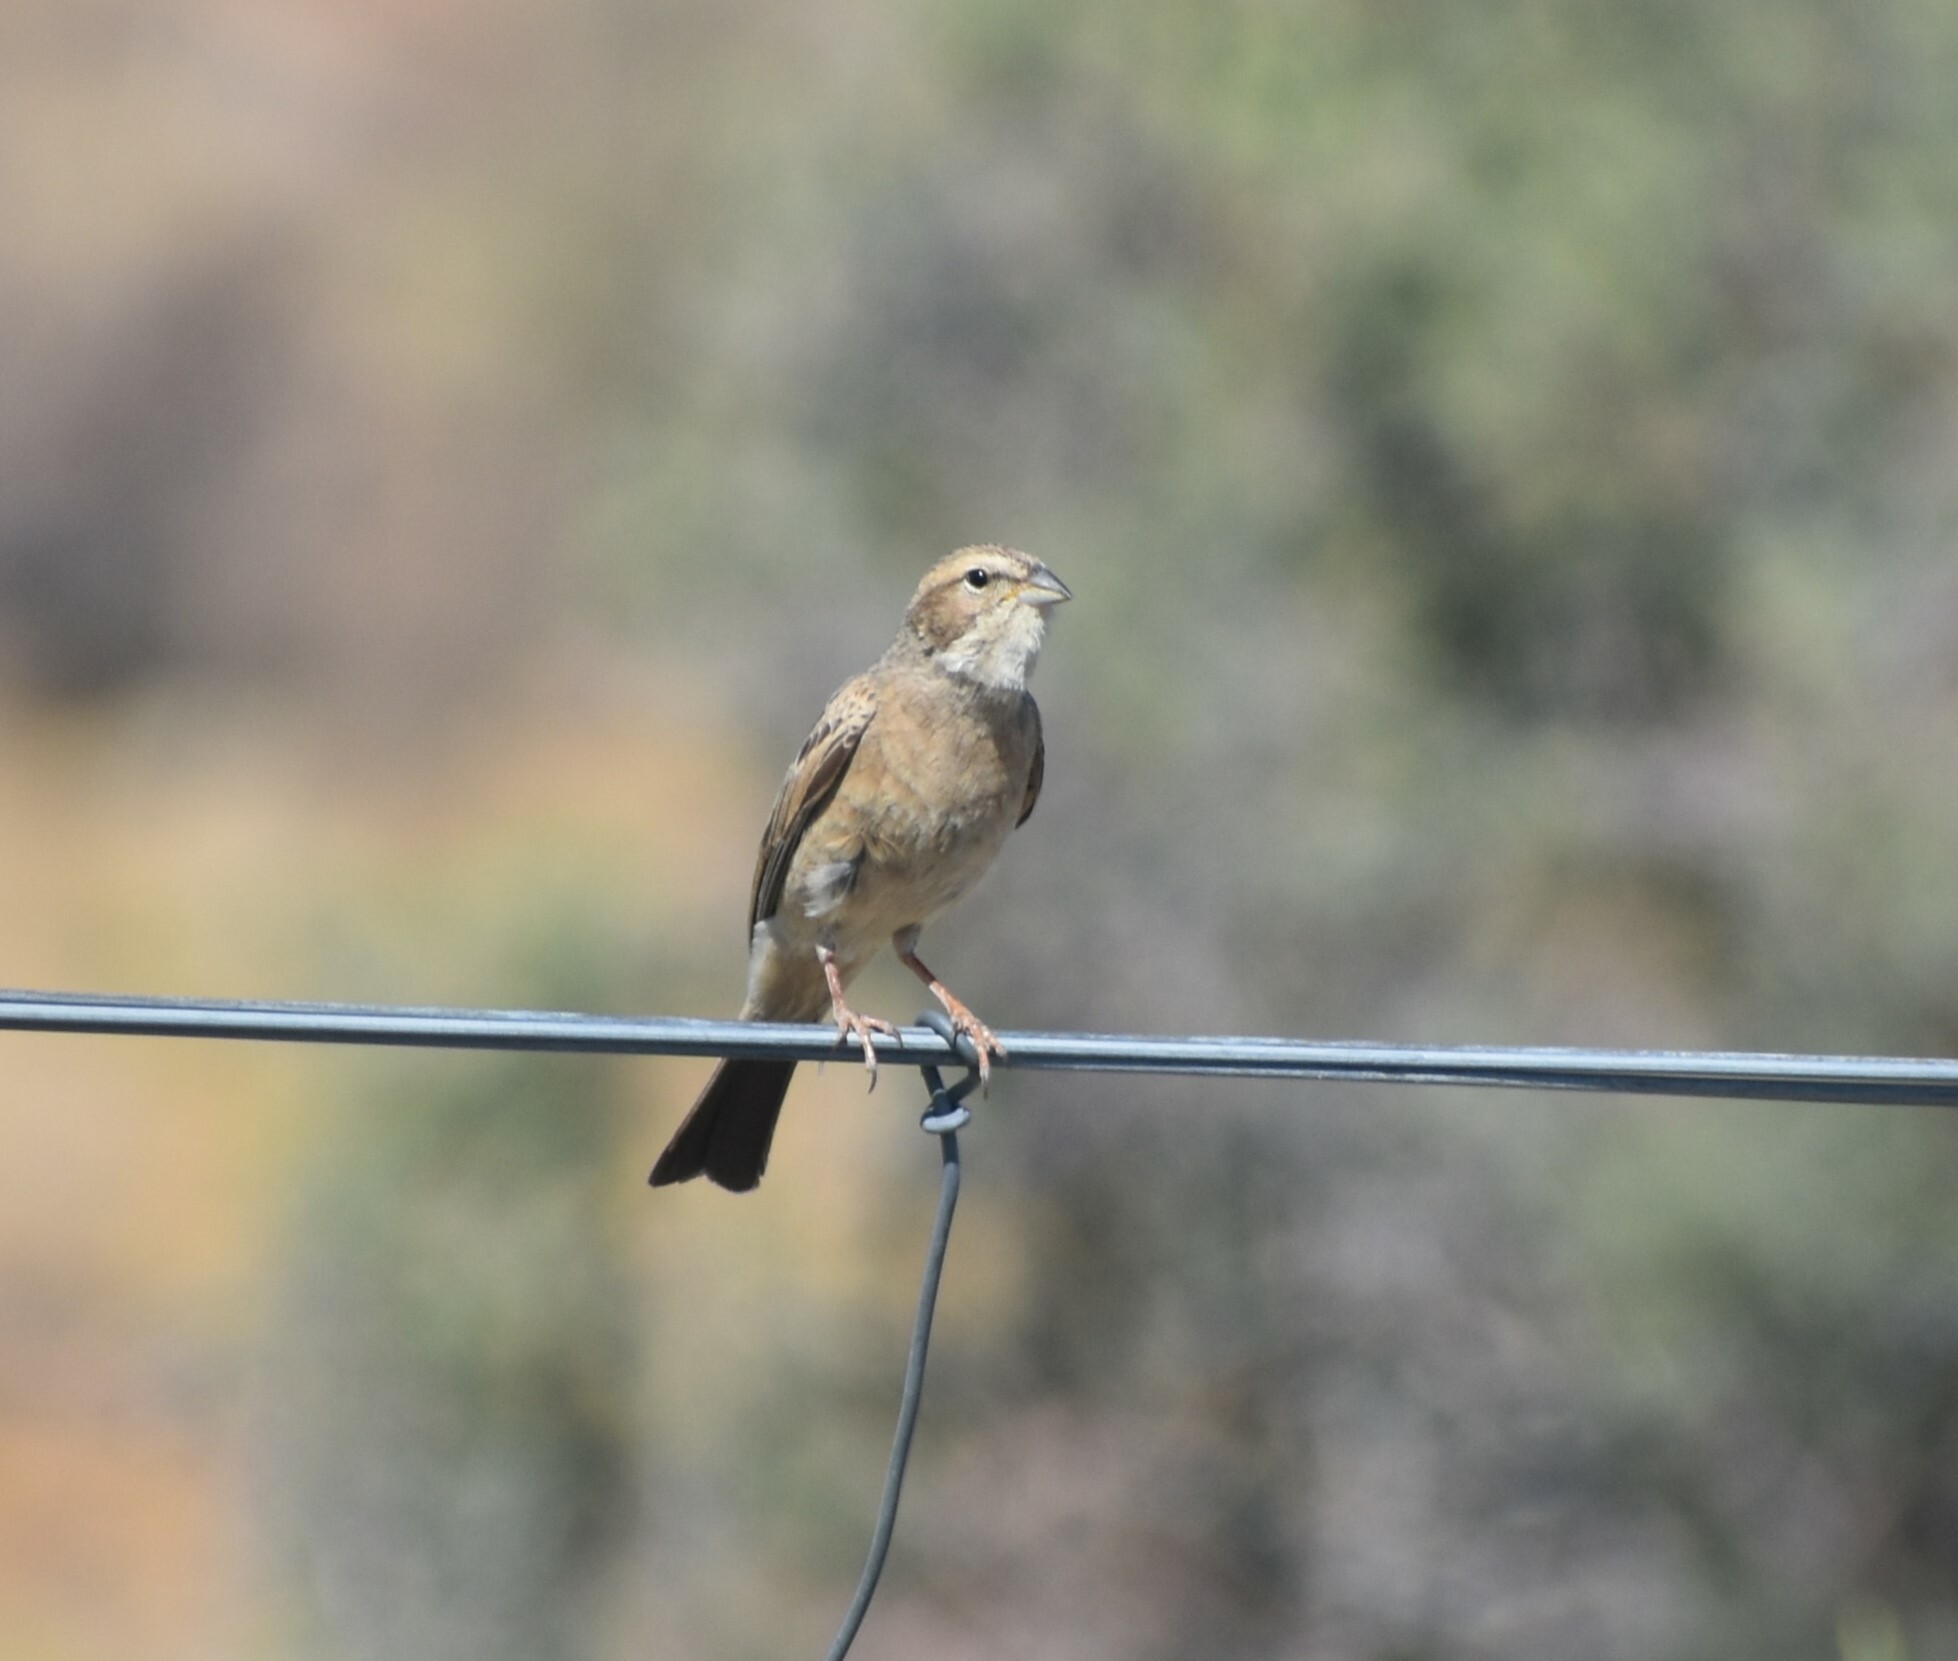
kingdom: Animalia
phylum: Chordata
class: Aves
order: Passeriformes
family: Emberizidae
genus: Emberiza
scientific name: Emberiza impetuani
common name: Lark-like bunting
